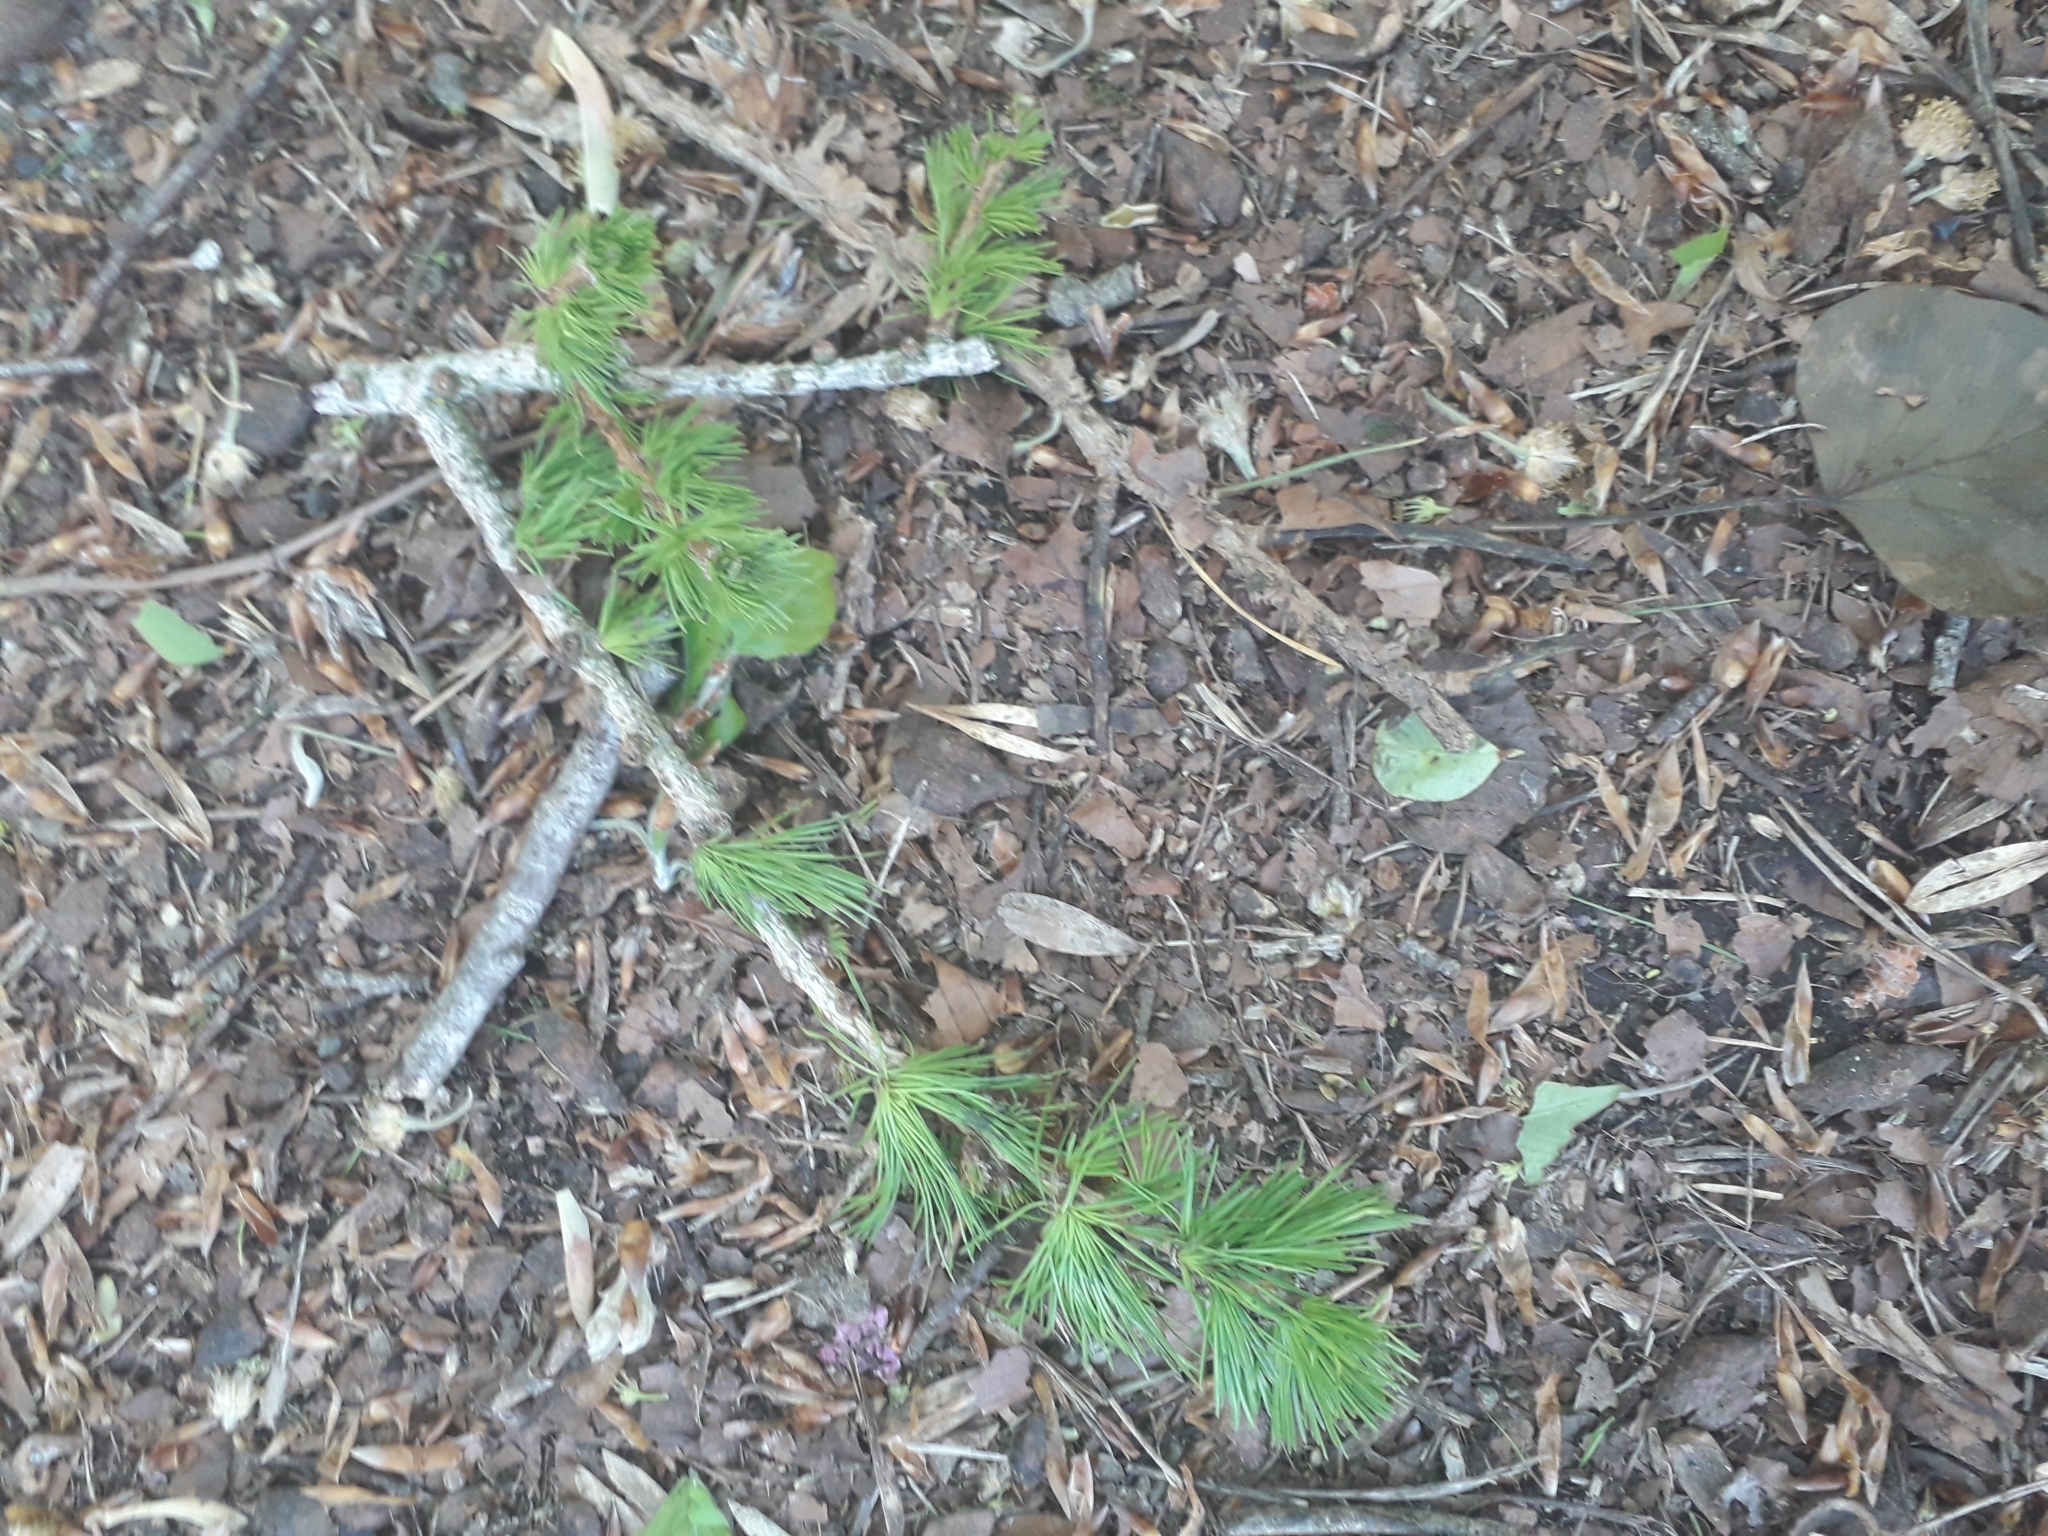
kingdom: Plantae
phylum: Tracheophyta
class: Pinopsida
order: Pinales
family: Pinaceae
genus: Larix
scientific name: Larix decidua
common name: European larch
